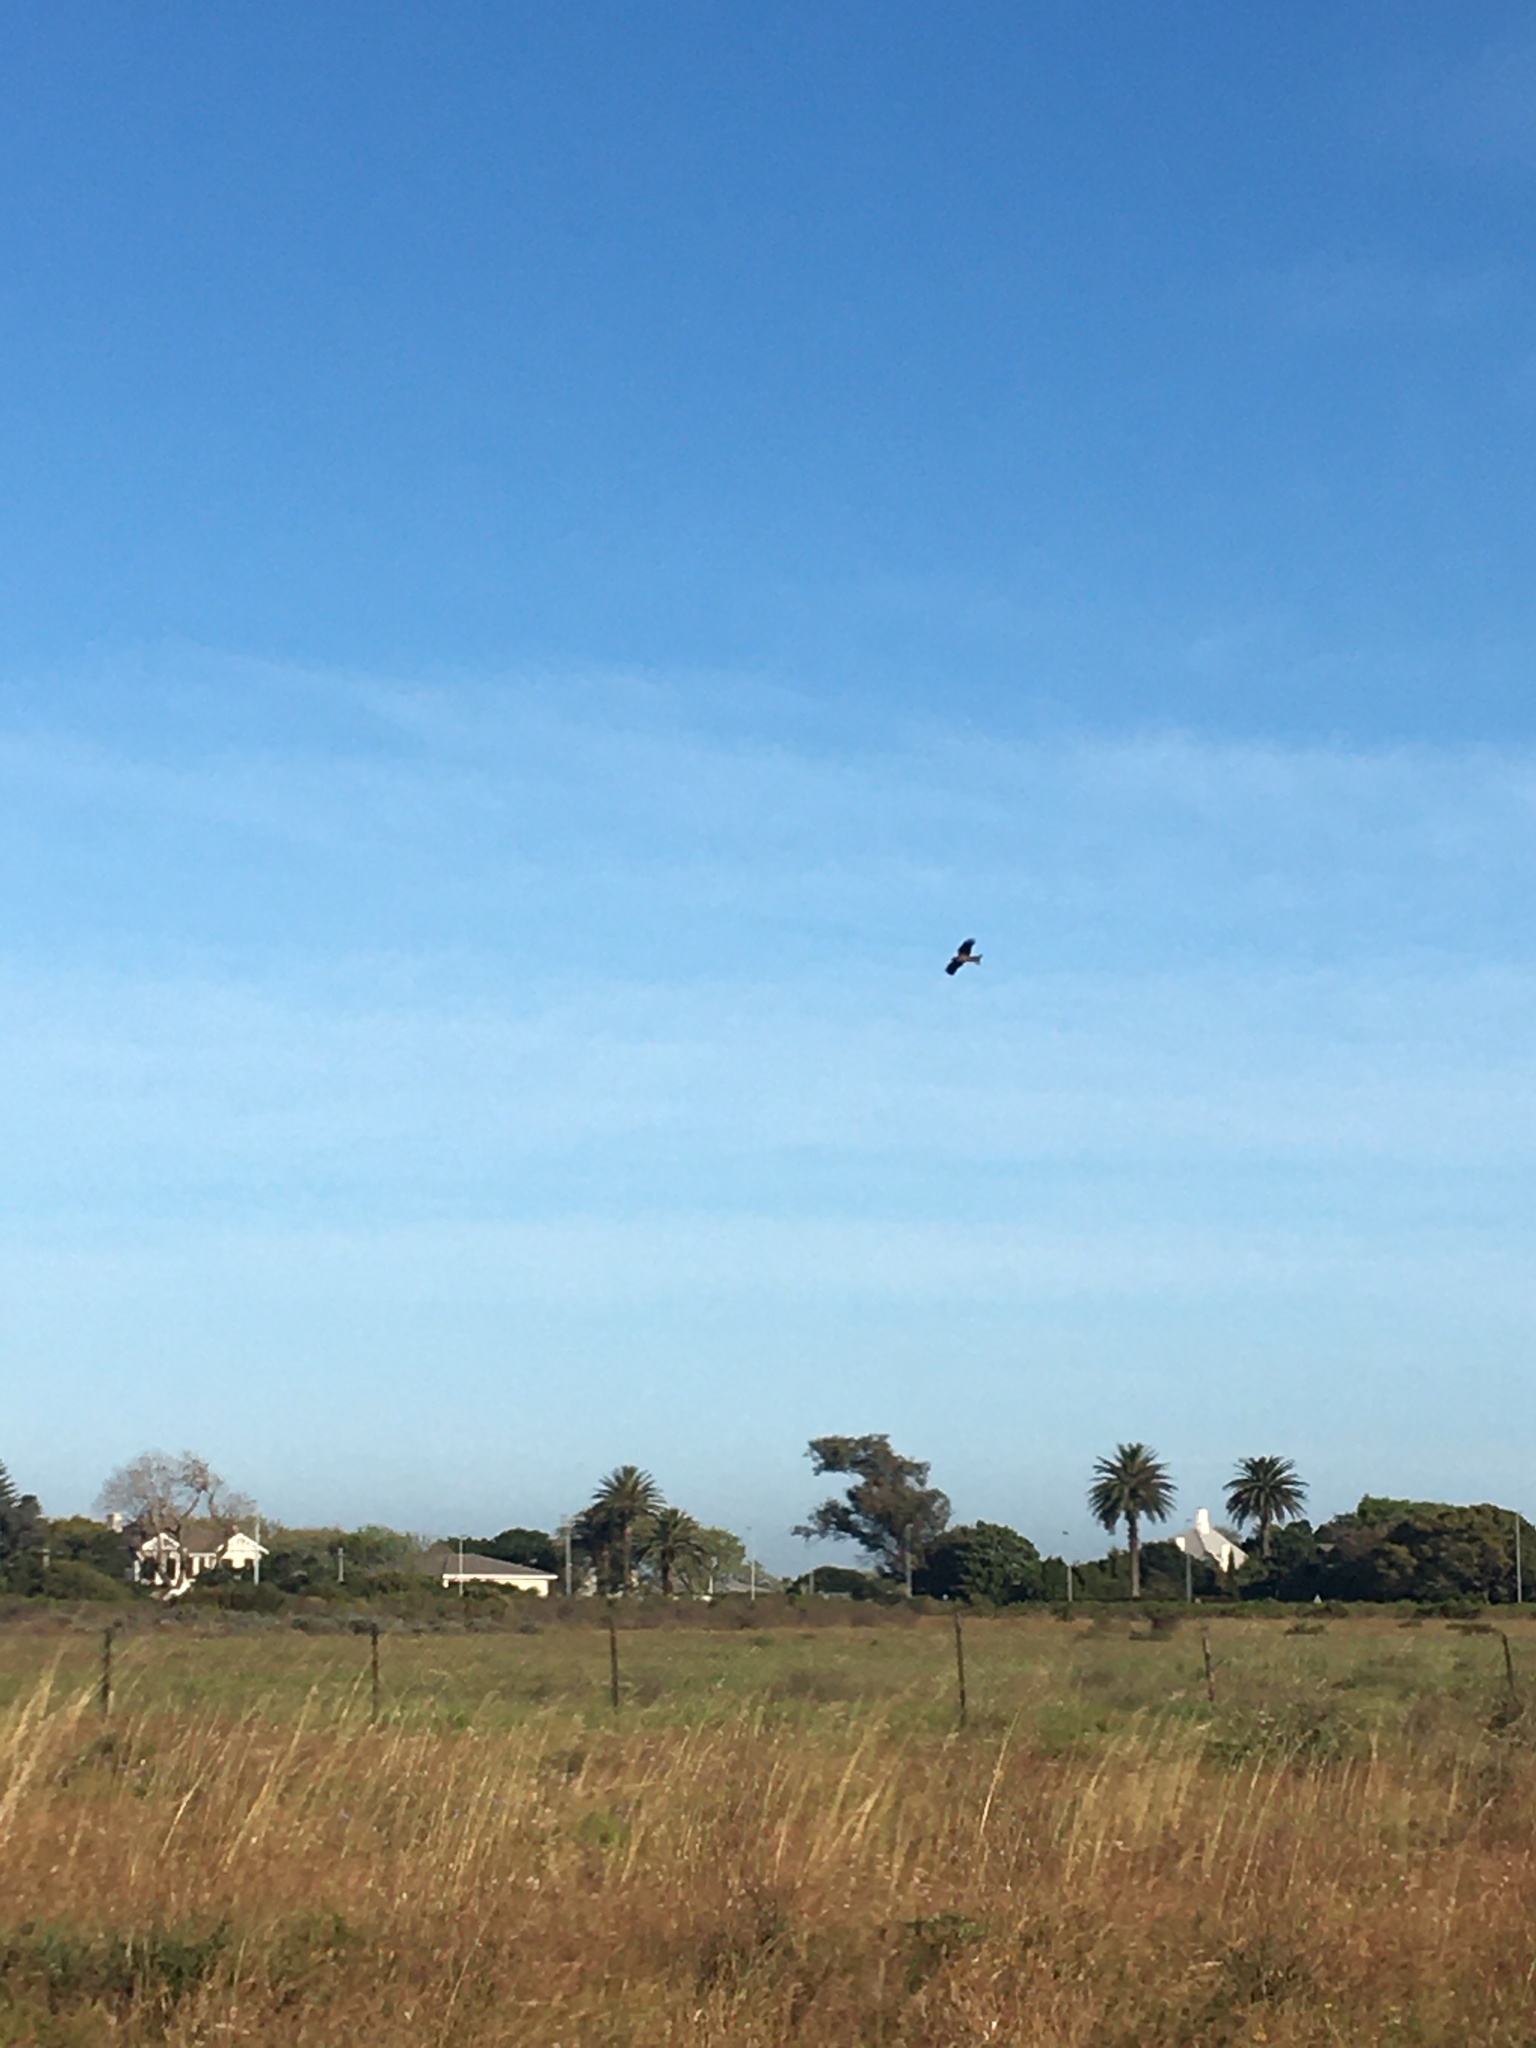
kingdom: Animalia
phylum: Chordata
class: Aves
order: Accipitriformes
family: Accipitridae
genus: Milvus
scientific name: Milvus migrans
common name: Black kite
